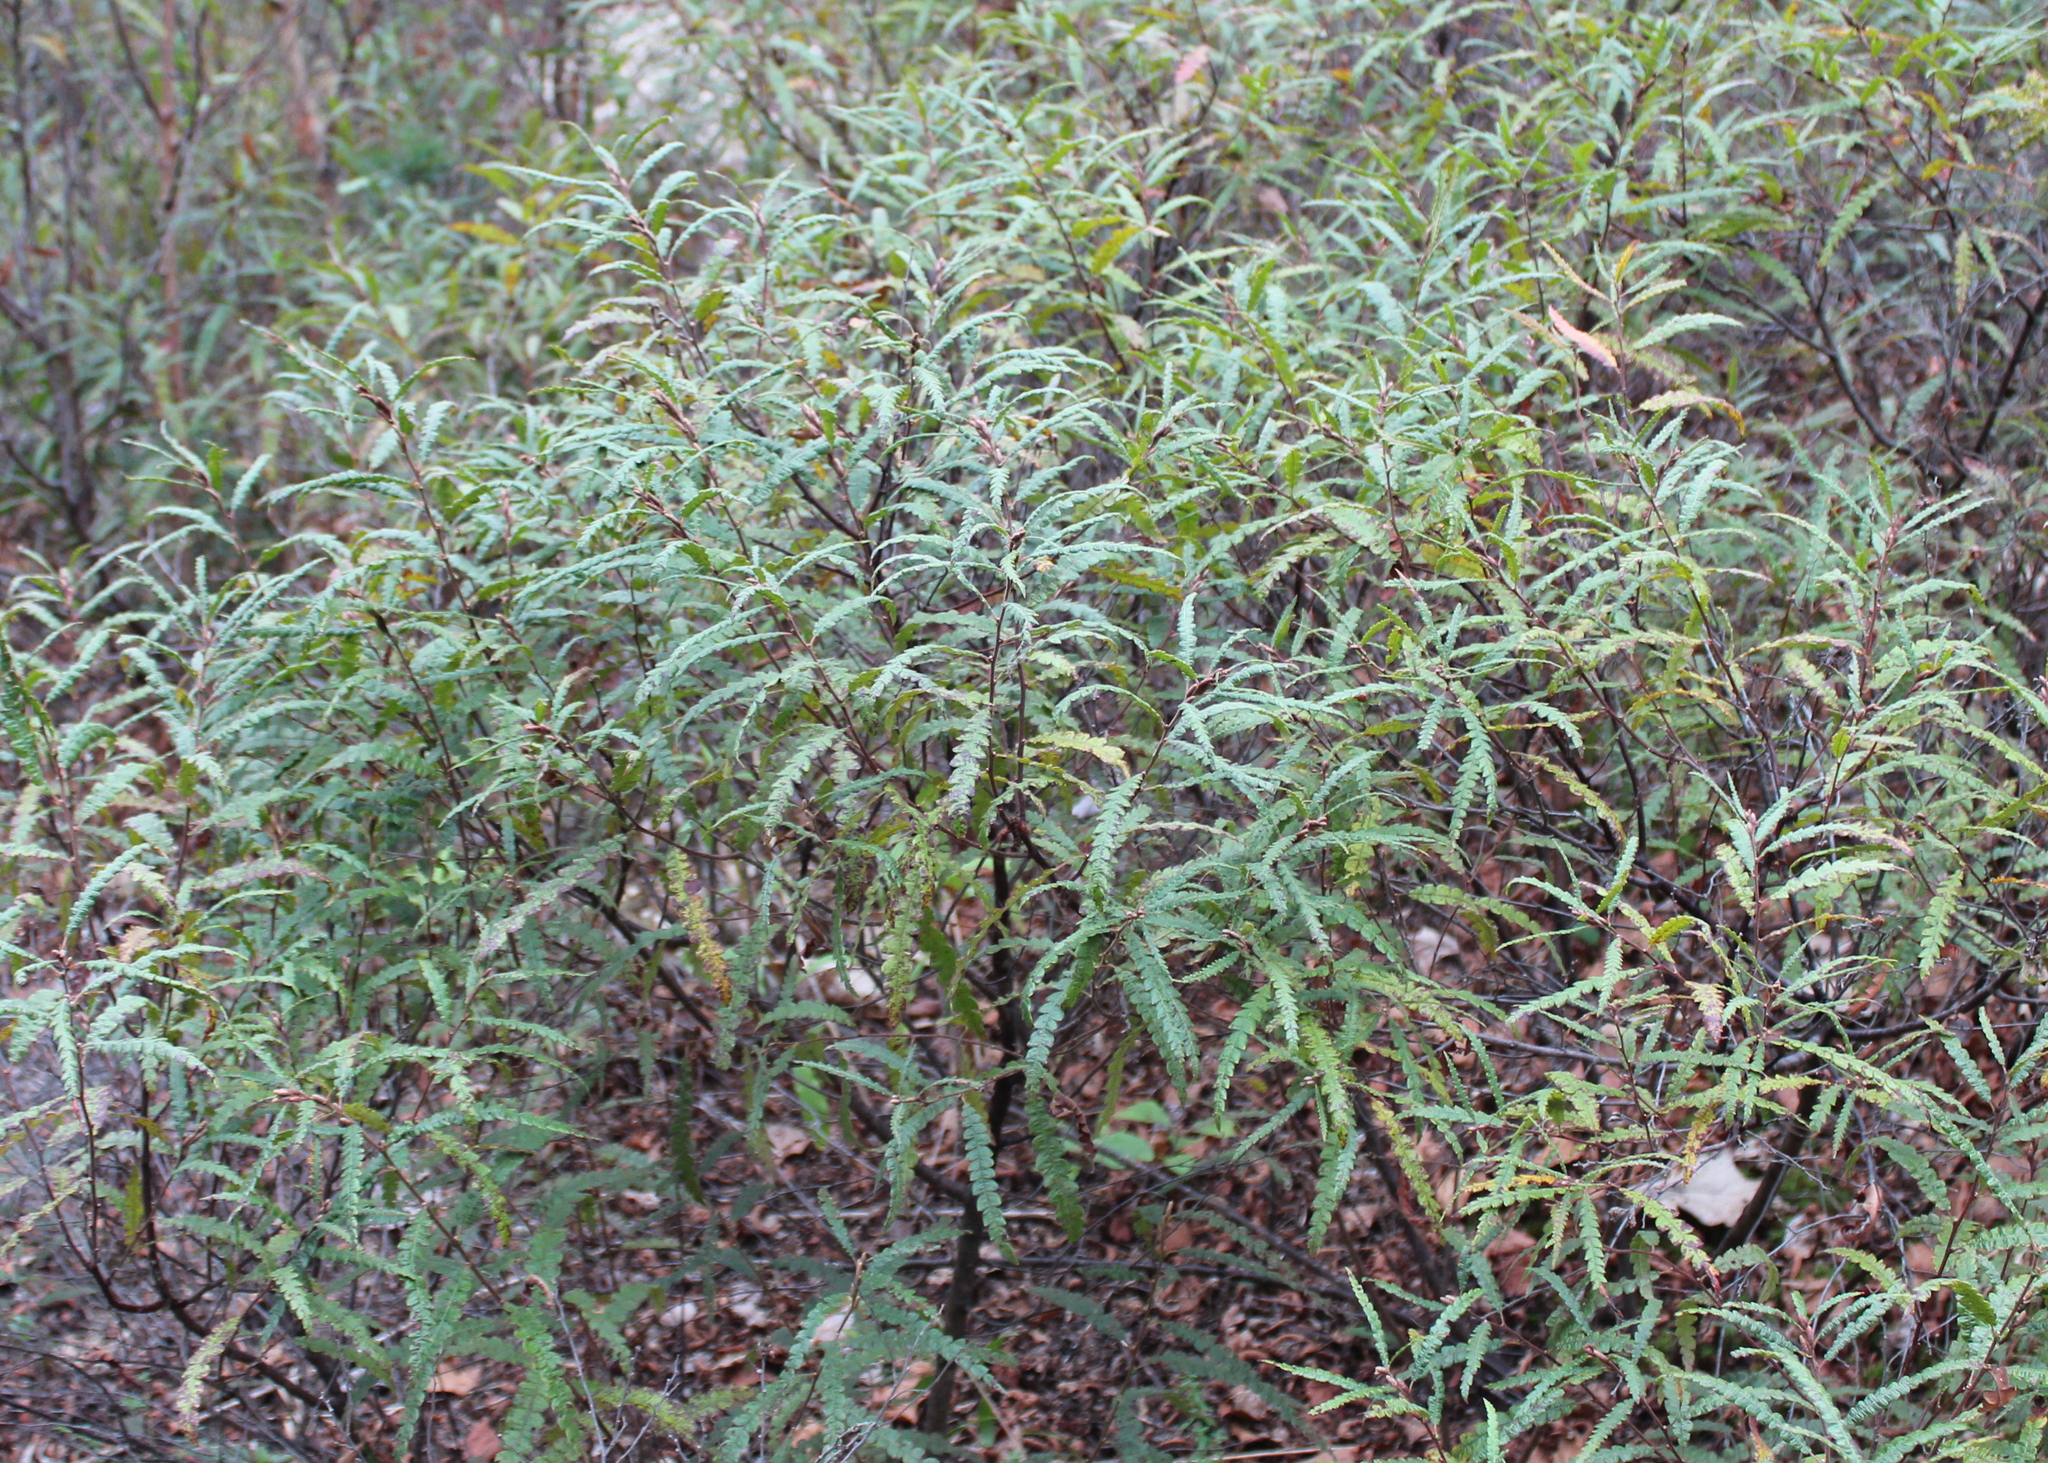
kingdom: Plantae
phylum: Tracheophyta
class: Magnoliopsida
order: Fagales
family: Myricaceae
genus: Comptonia
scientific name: Comptonia peregrina
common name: Sweet-fern
